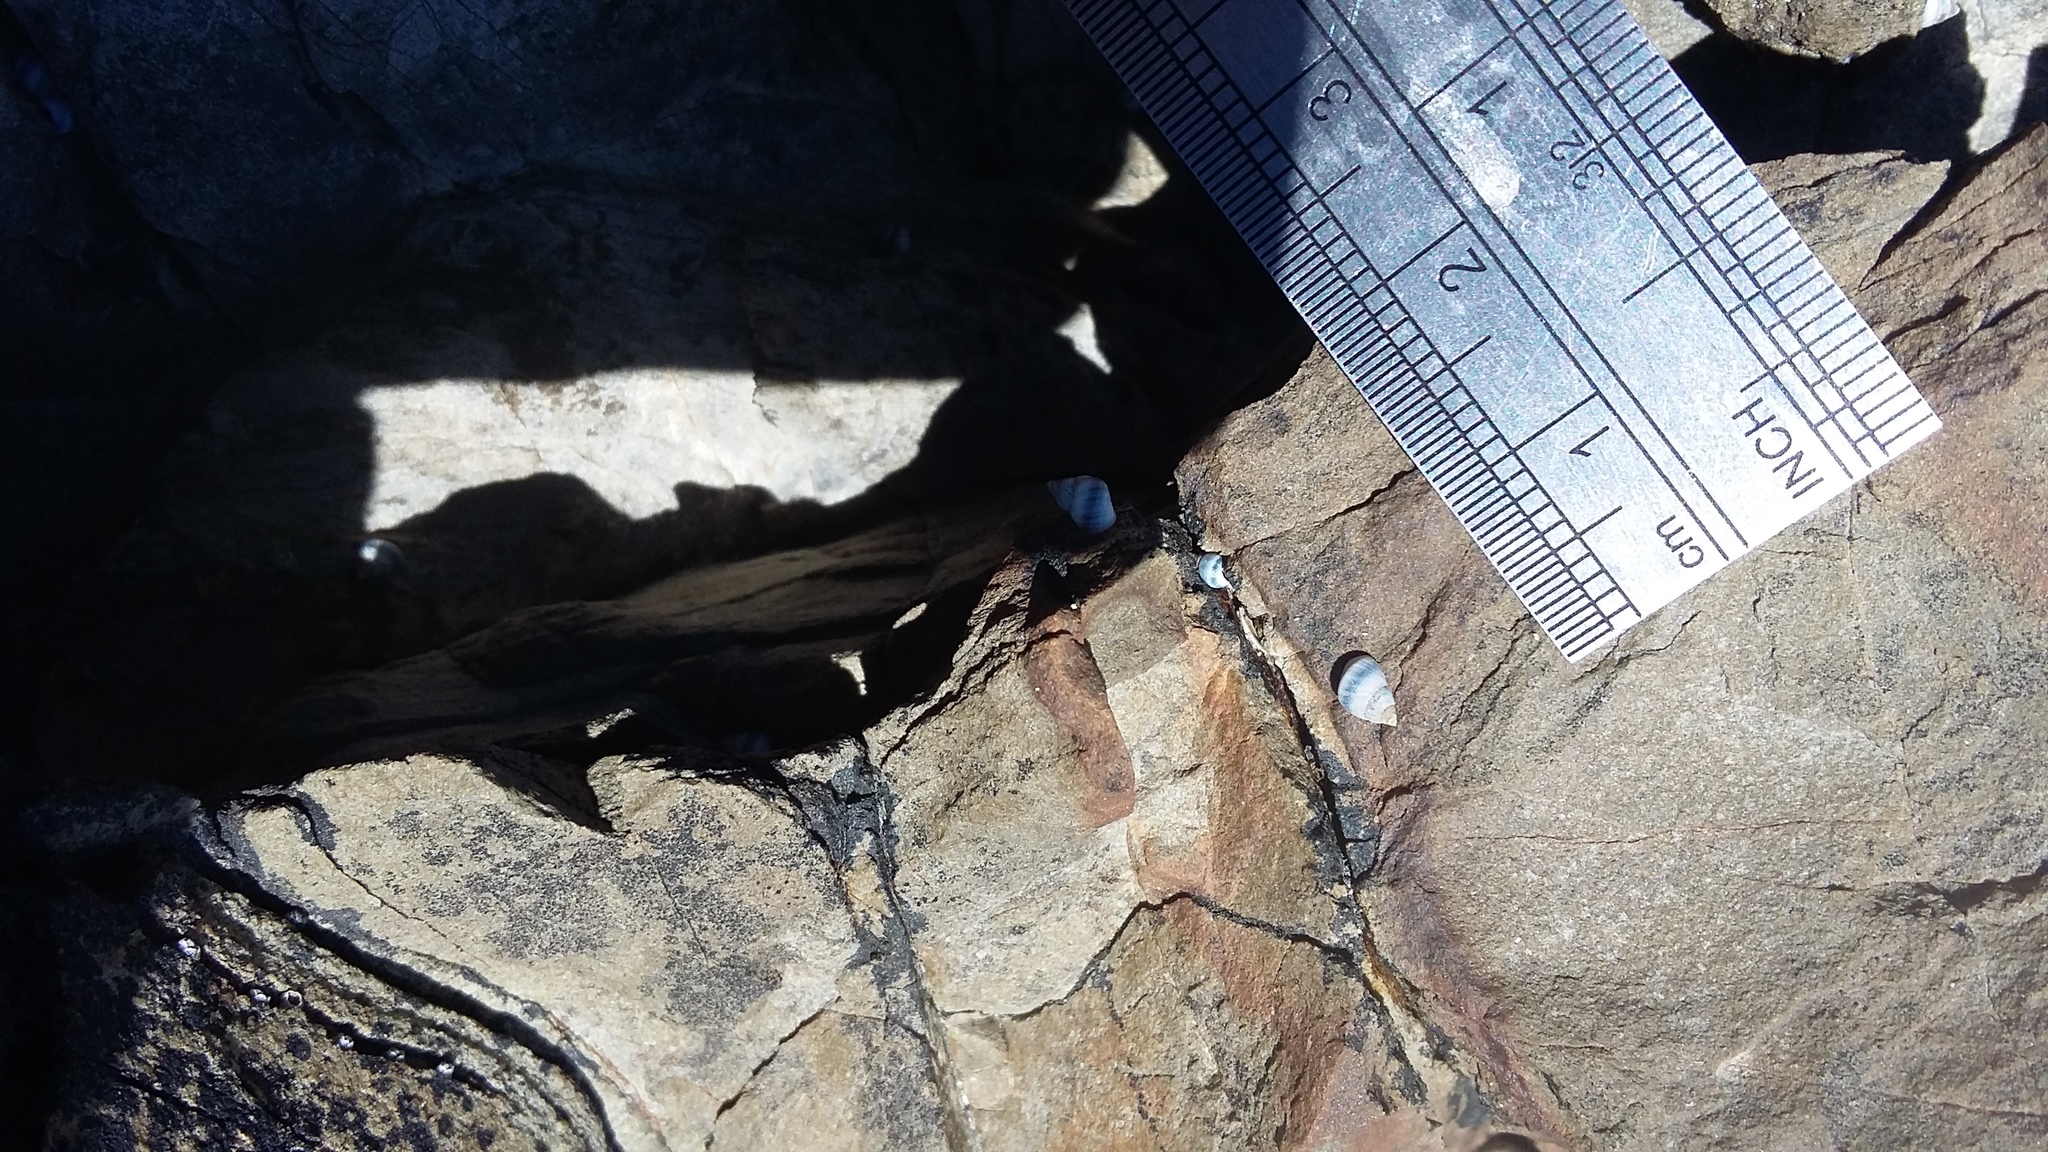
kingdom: Animalia
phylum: Mollusca
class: Gastropoda
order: Littorinimorpha
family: Littorinidae
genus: Austrolittorina
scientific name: Austrolittorina antipodum
